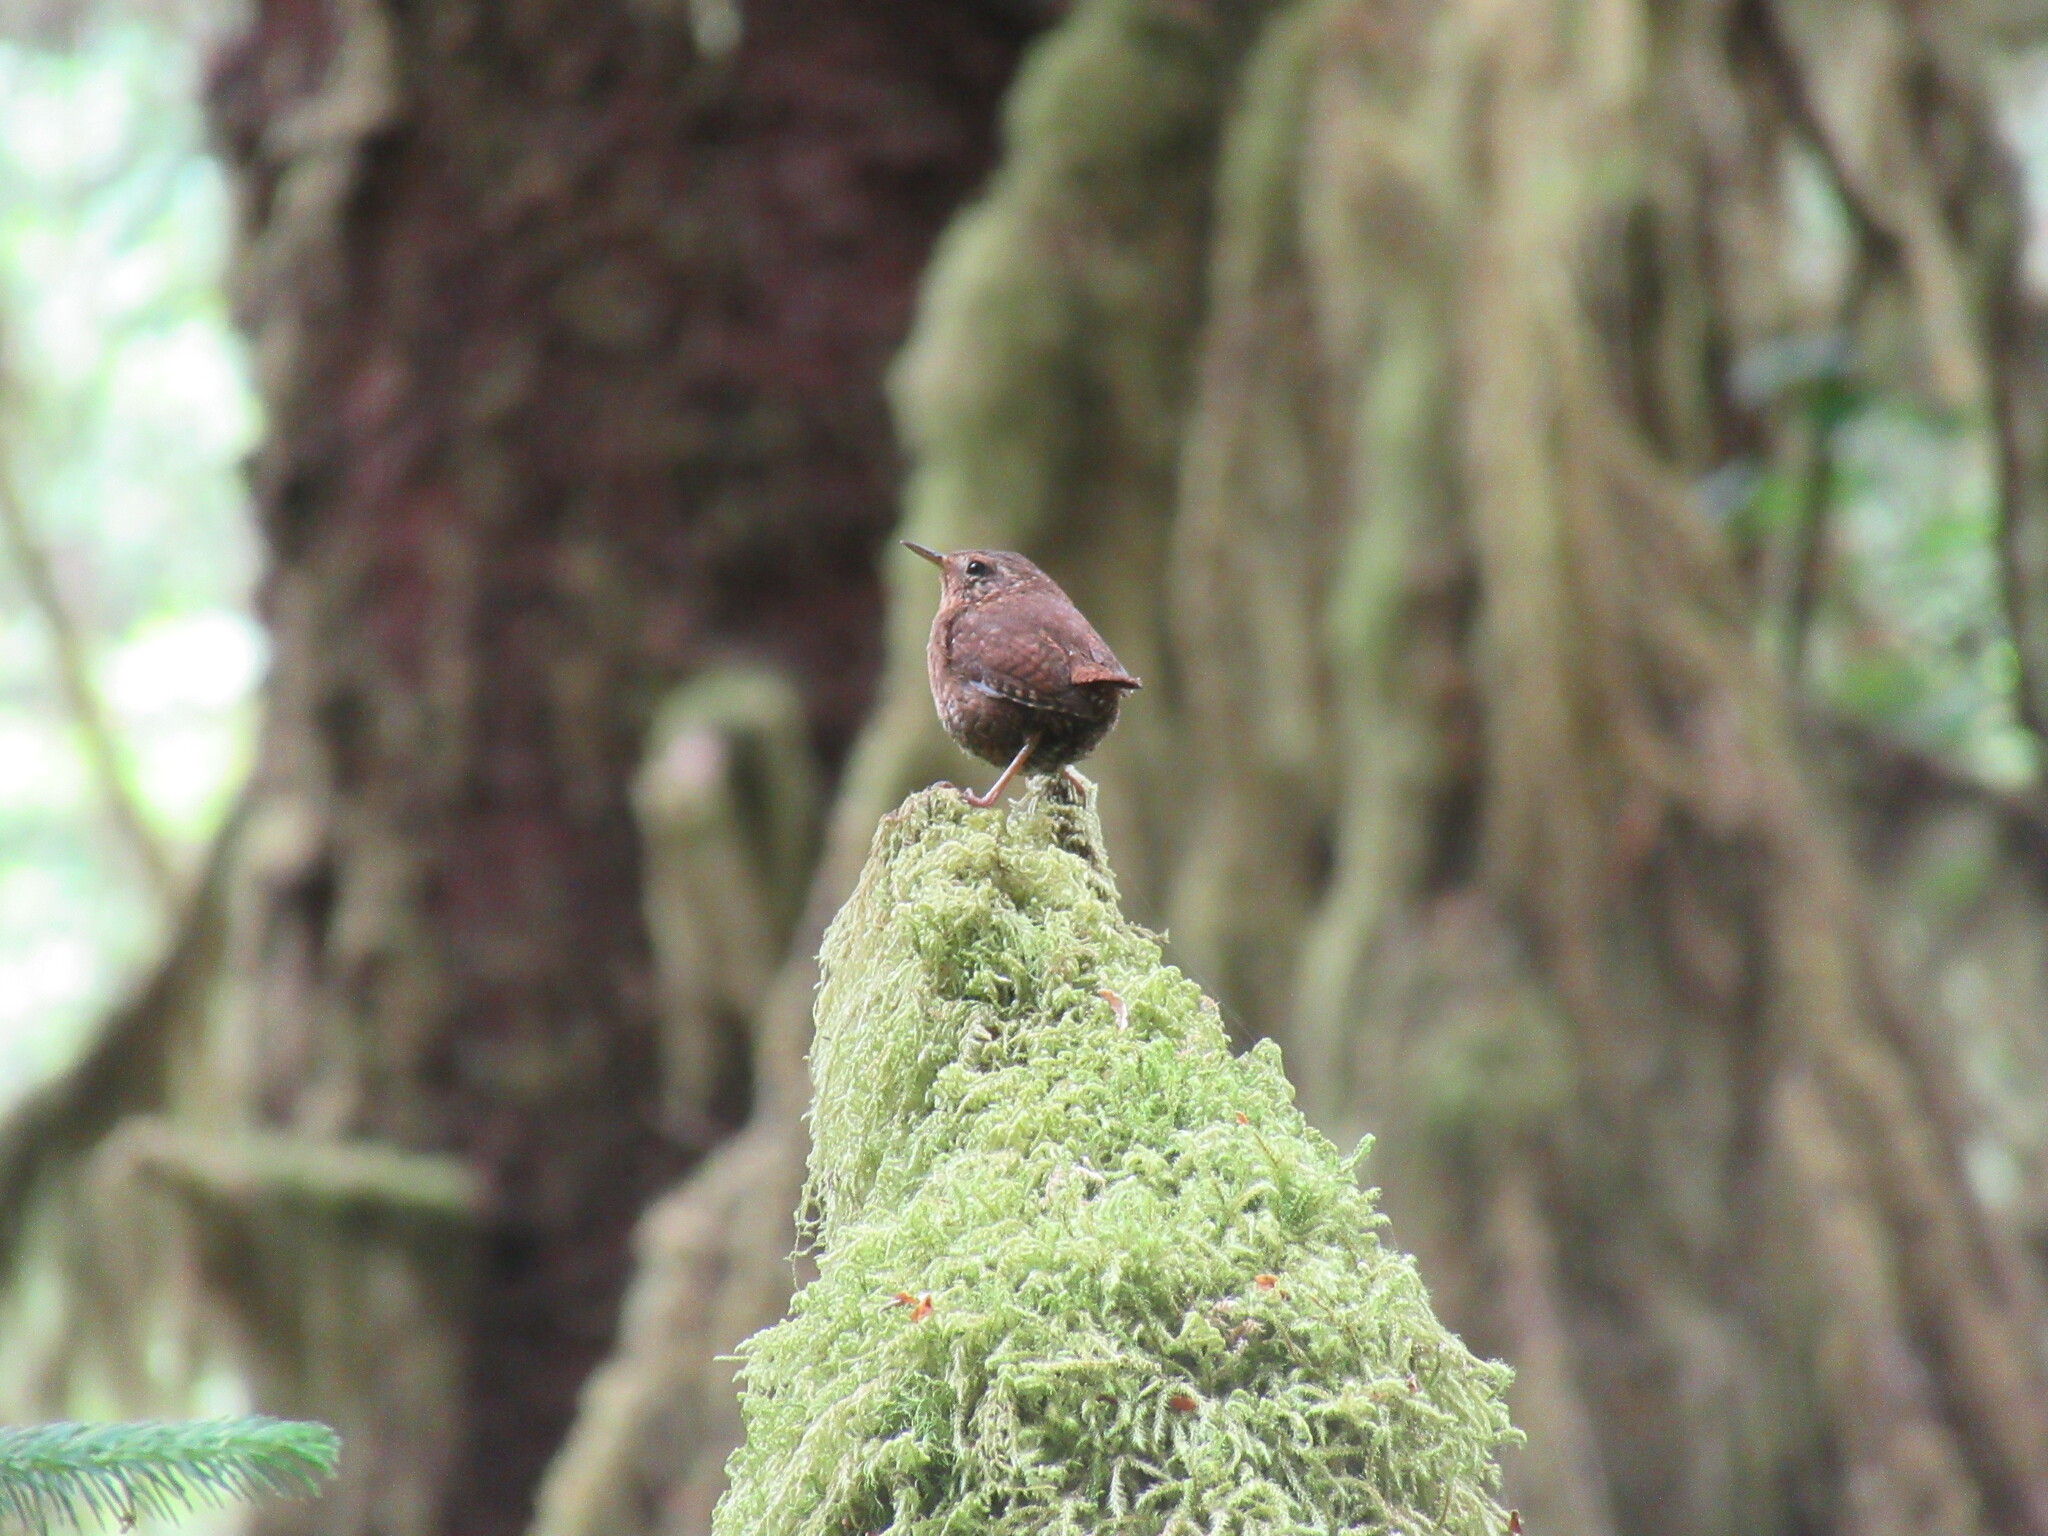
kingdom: Animalia
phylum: Chordata
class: Aves
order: Passeriformes
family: Troglodytidae
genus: Troglodytes
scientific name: Troglodytes pacificus
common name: Pacific wren
